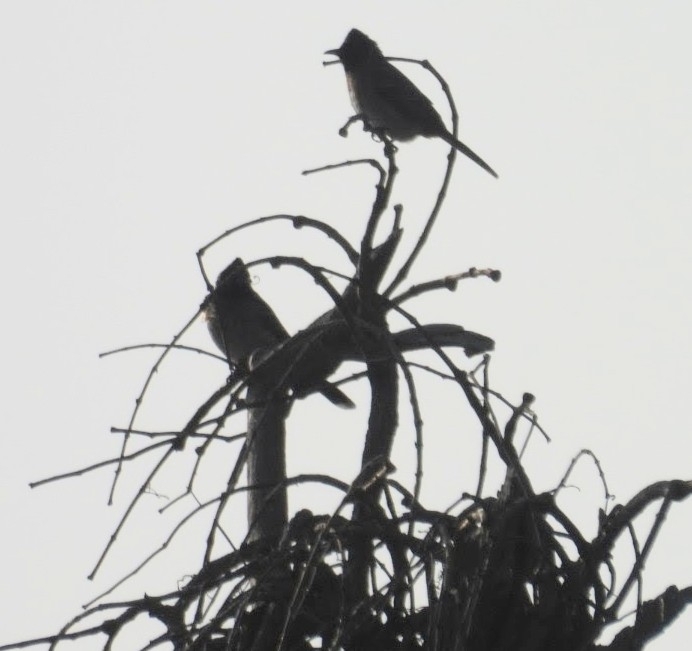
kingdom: Animalia
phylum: Chordata
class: Aves
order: Passeriformes
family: Pycnonotidae
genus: Pycnonotus
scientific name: Pycnonotus cafer
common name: Red-vented bulbul
